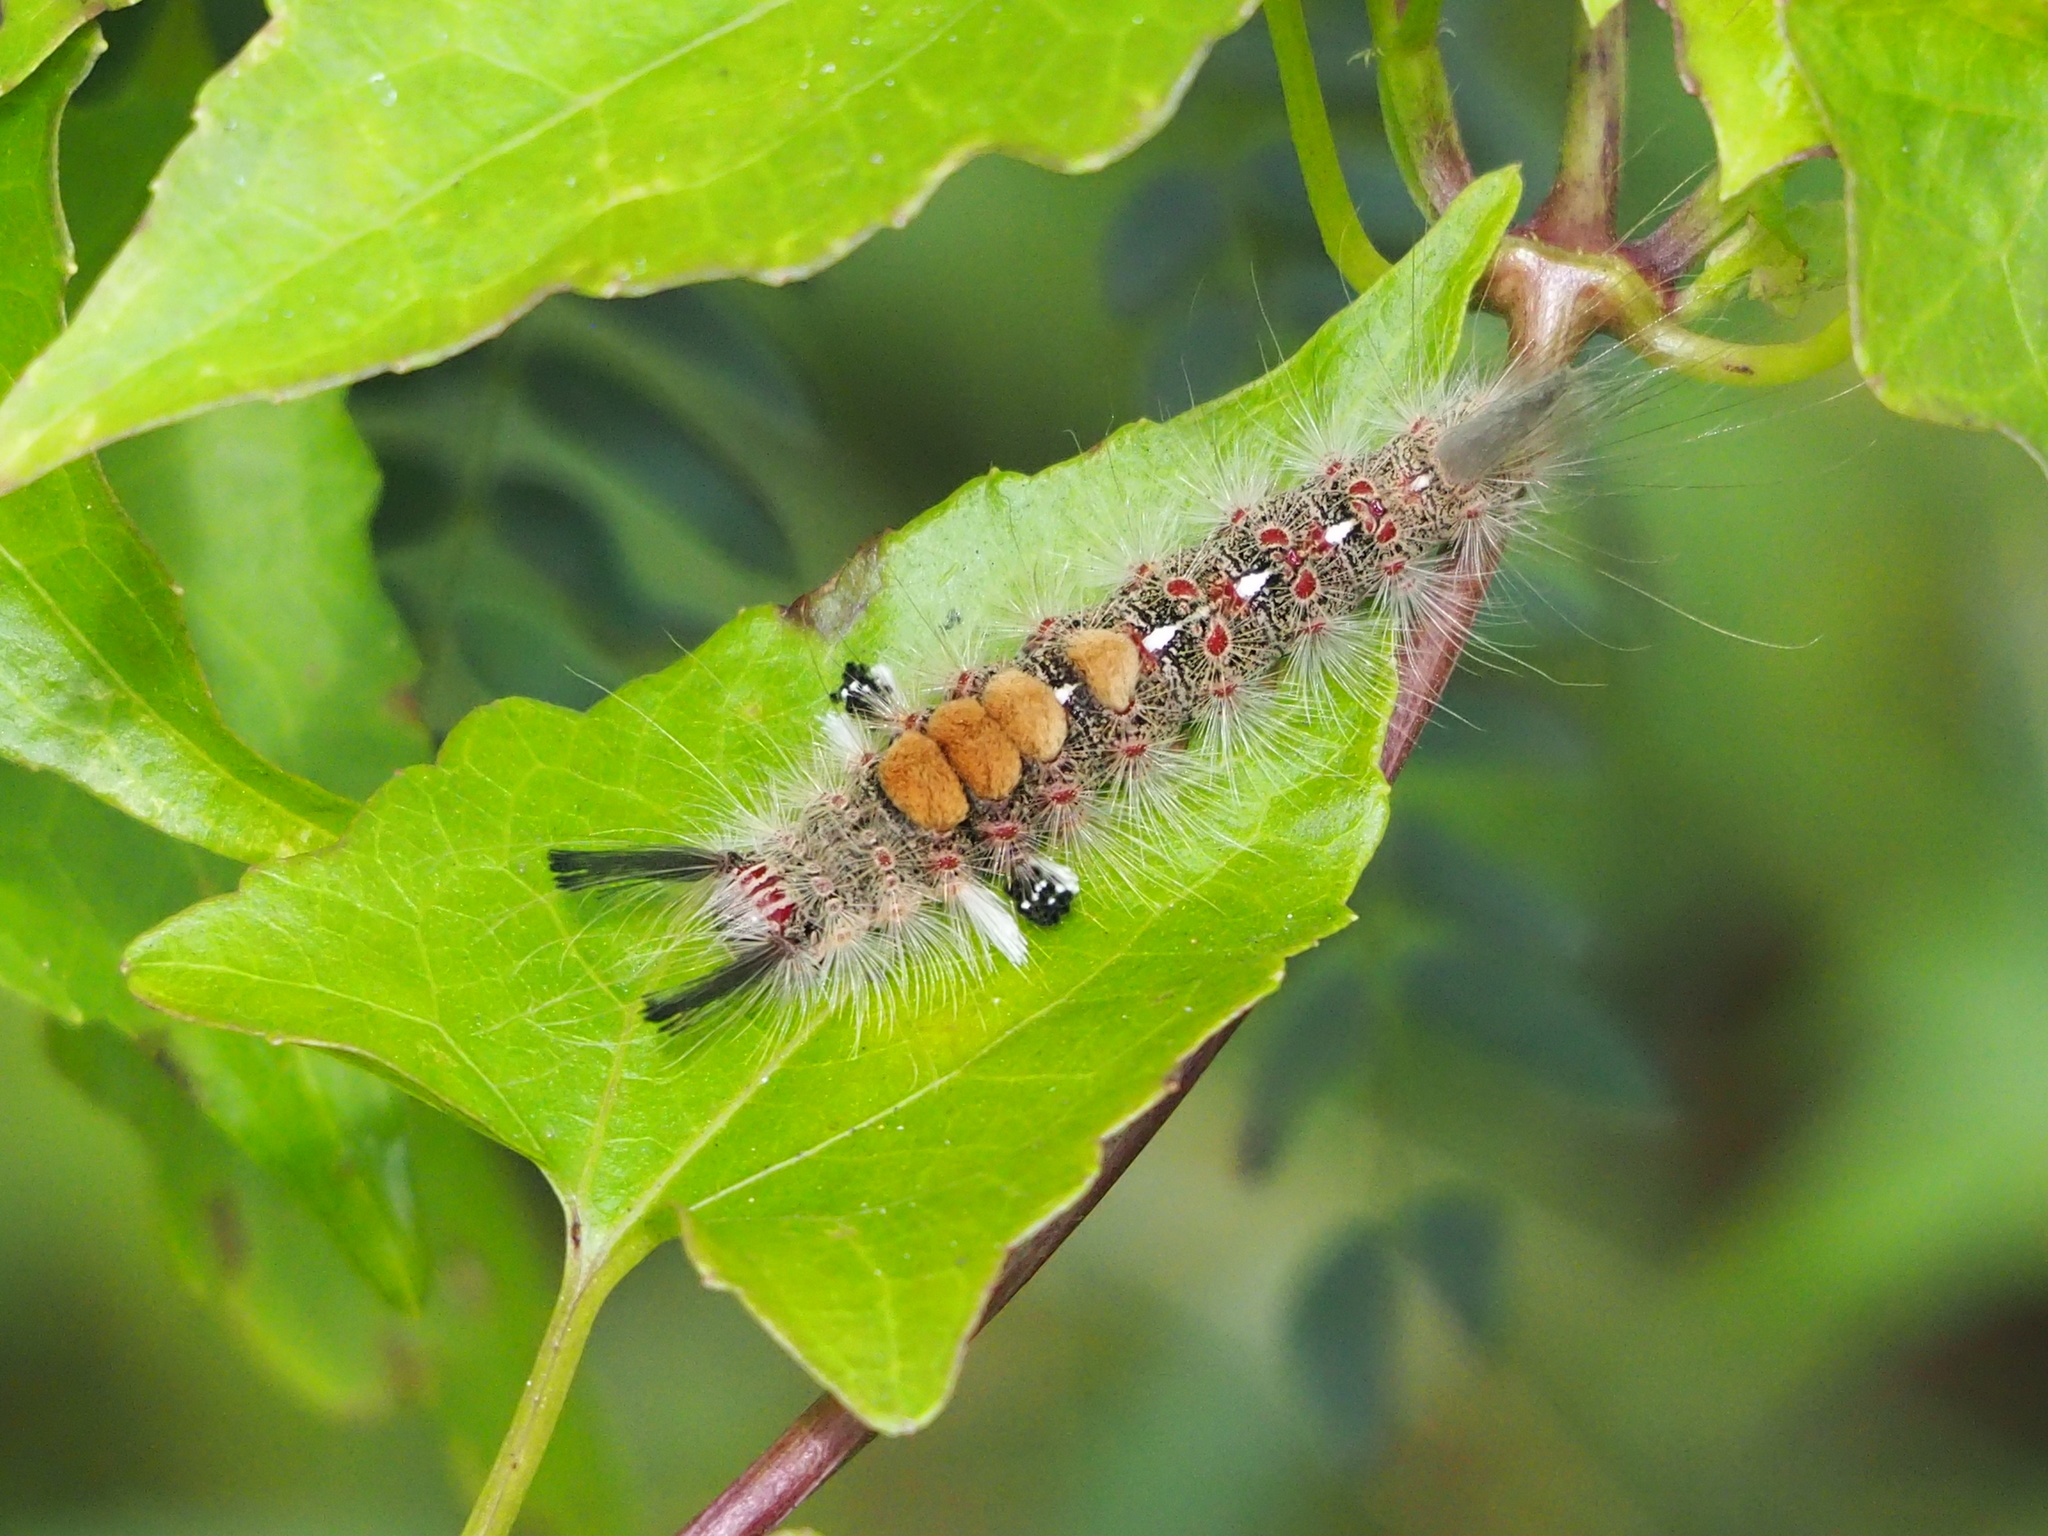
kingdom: Animalia
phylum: Arthropoda
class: Insecta
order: Lepidoptera
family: Erebidae
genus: Olene
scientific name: Olene mendosa
